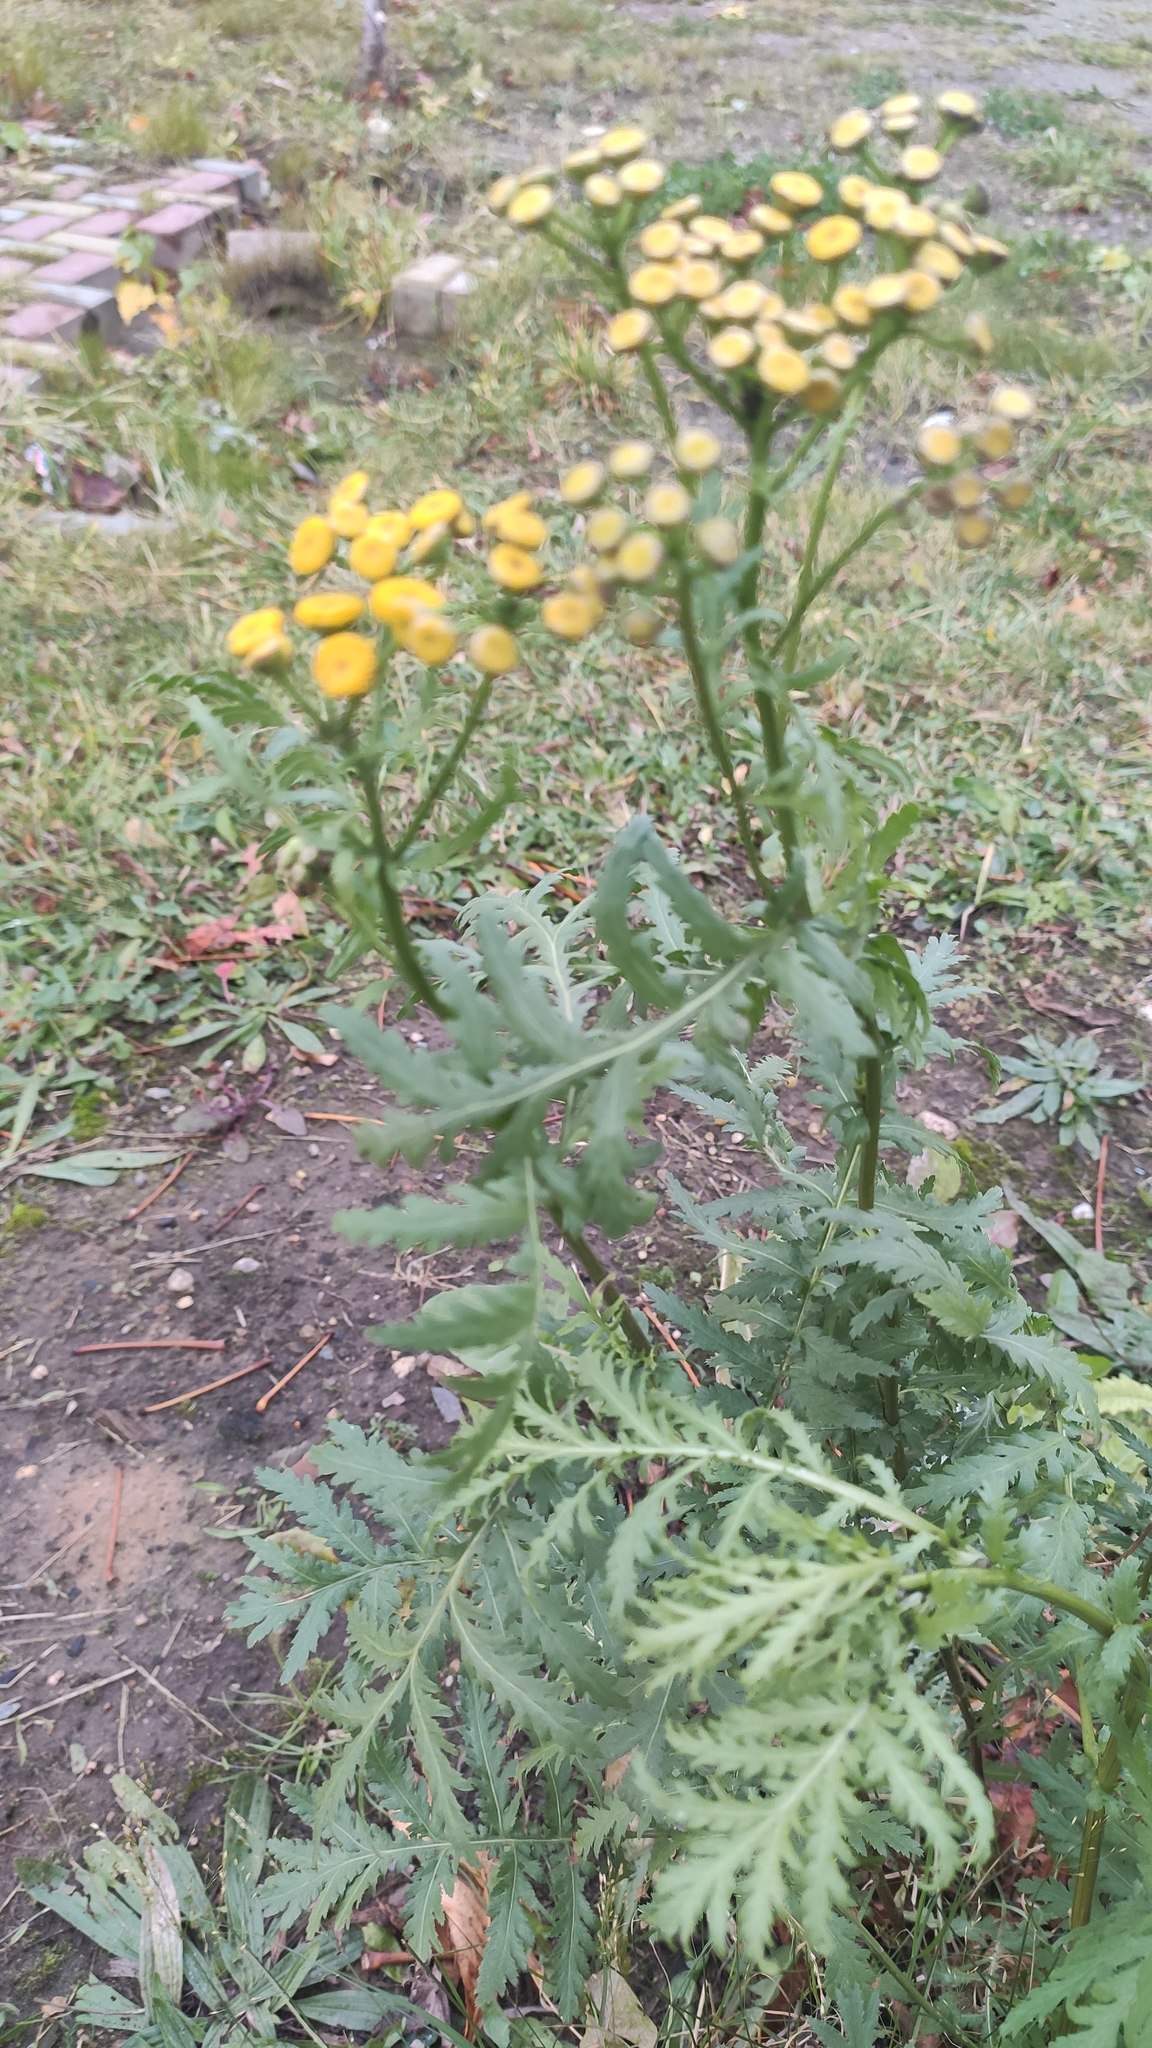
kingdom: Plantae
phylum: Tracheophyta
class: Magnoliopsida
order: Asterales
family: Asteraceae
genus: Tanacetum
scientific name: Tanacetum vulgare
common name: Common tansy
